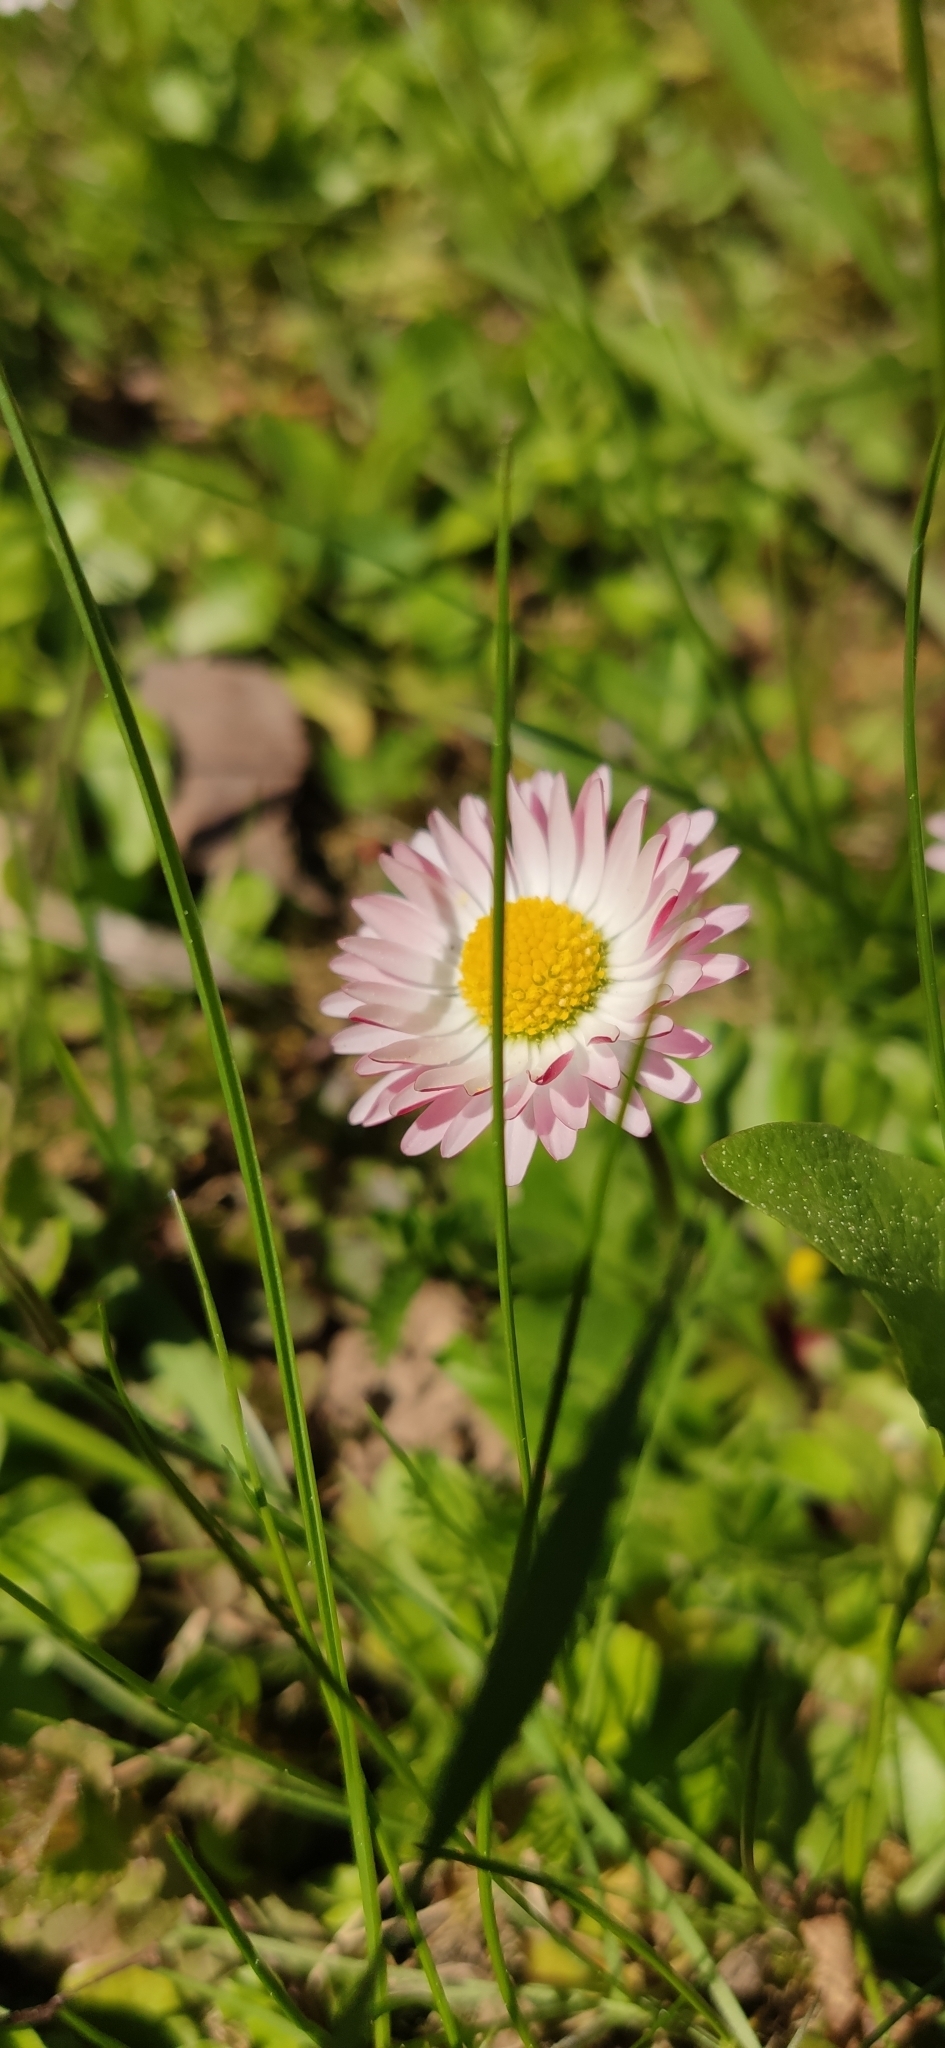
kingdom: Plantae
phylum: Tracheophyta
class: Magnoliopsida
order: Asterales
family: Asteraceae
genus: Bellis
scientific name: Bellis perennis
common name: Lawndaisy
